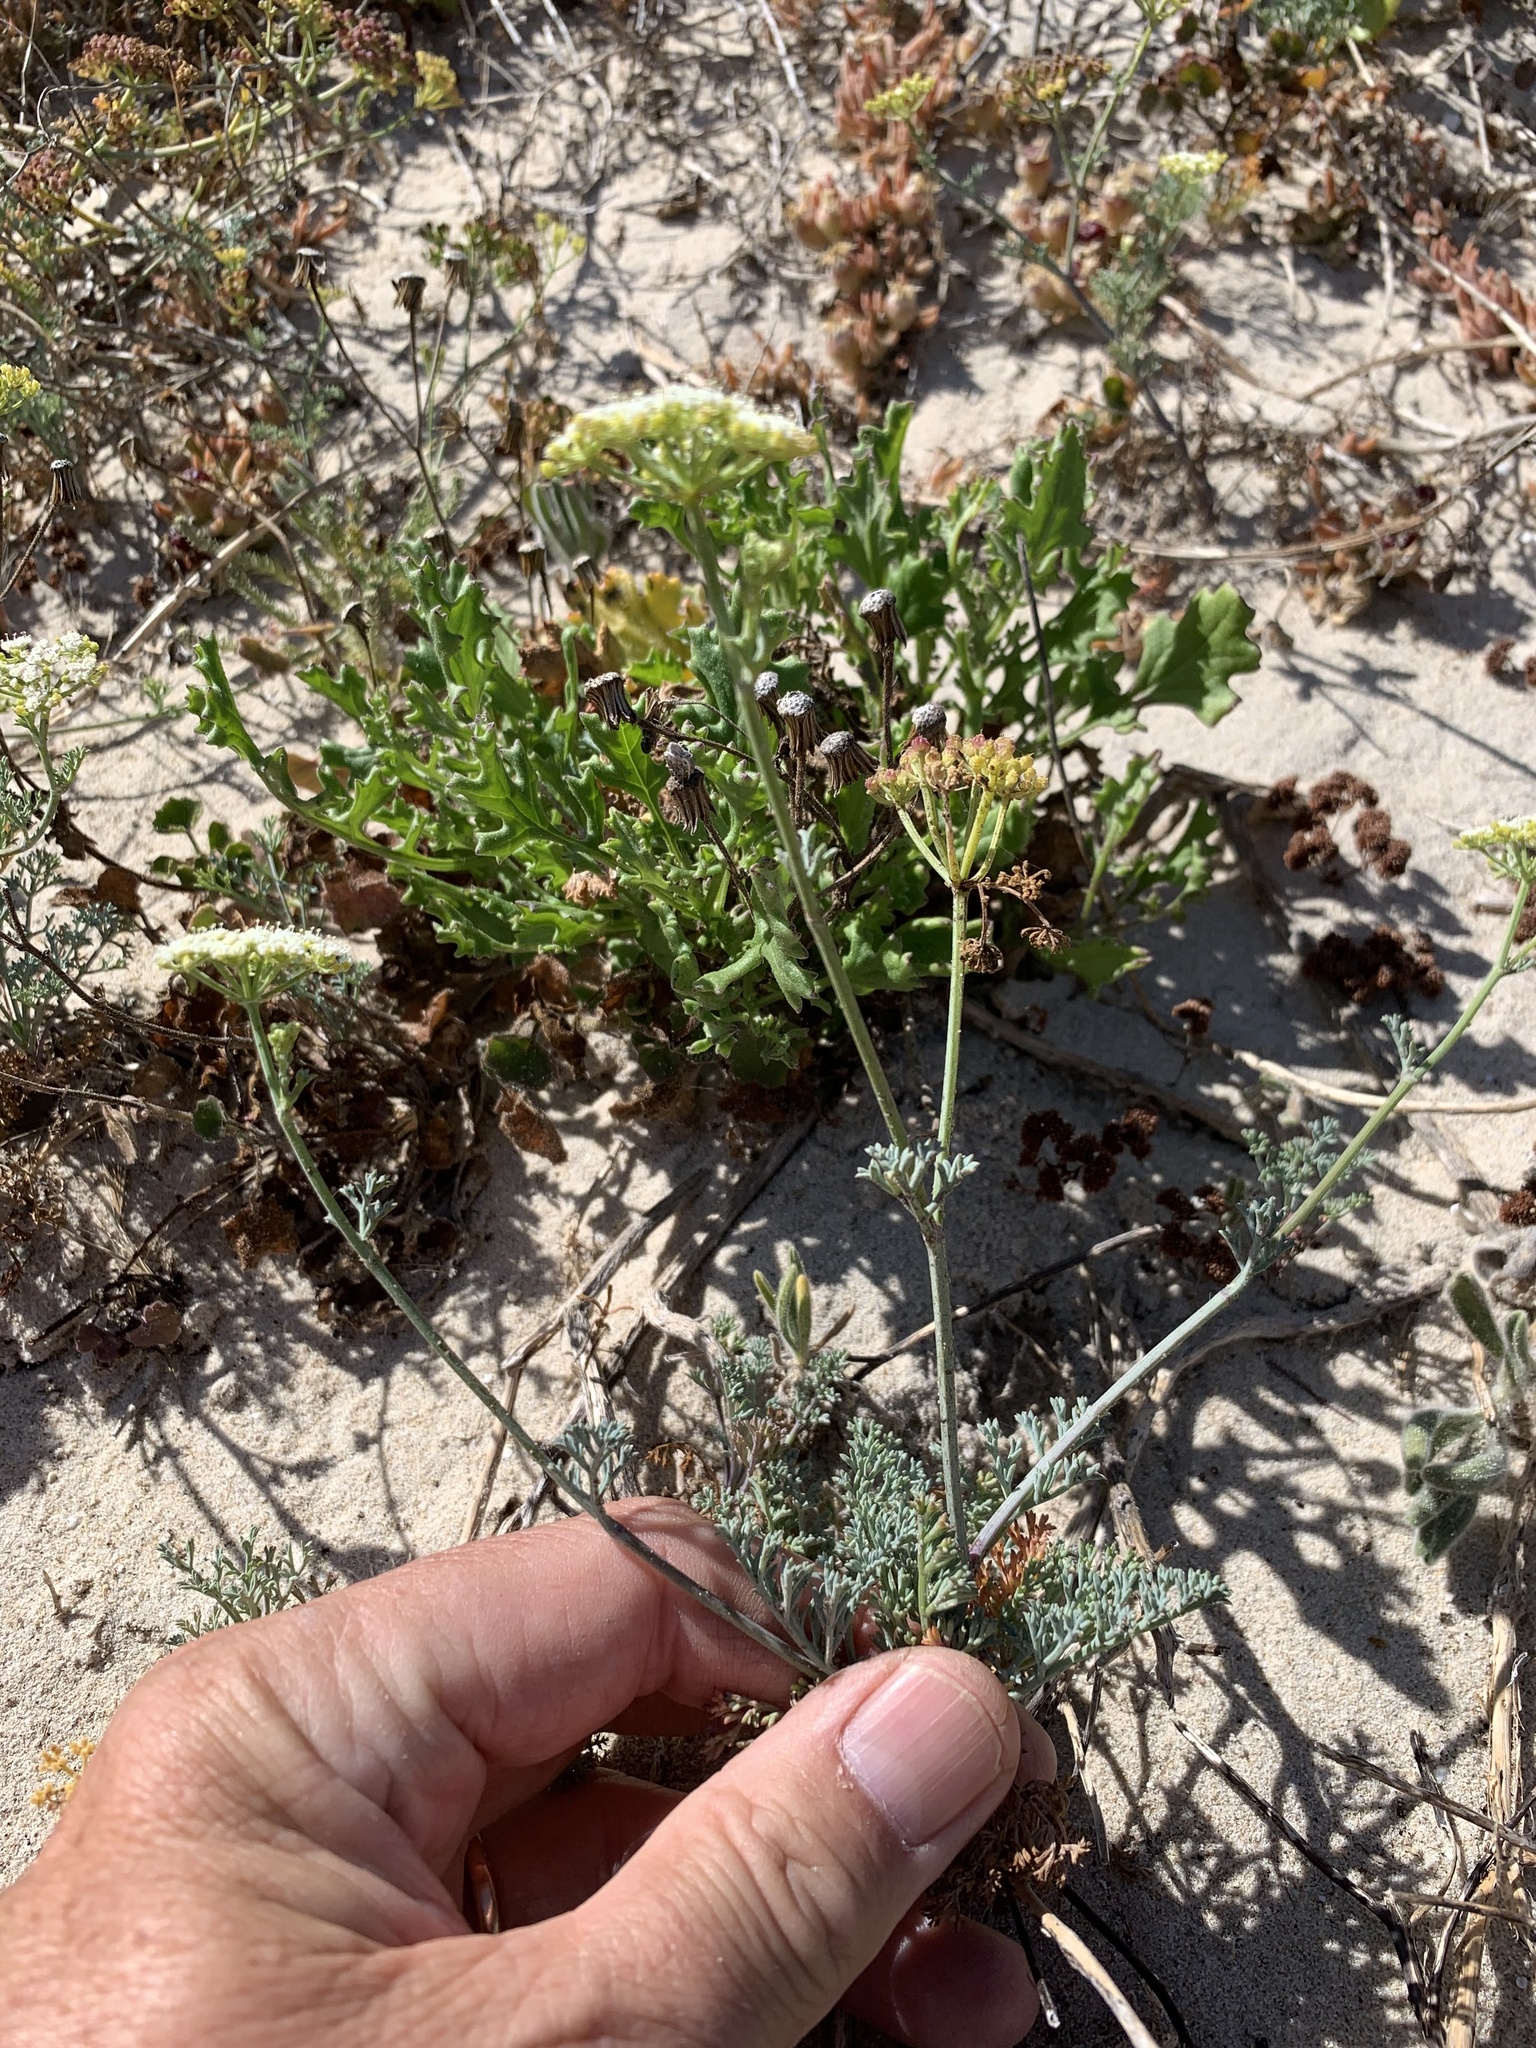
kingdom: Plantae
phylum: Tracheophyta
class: Magnoliopsida
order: Apiales
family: Apiaceae
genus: Dasispermum
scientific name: Dasispermum suffruticosum
